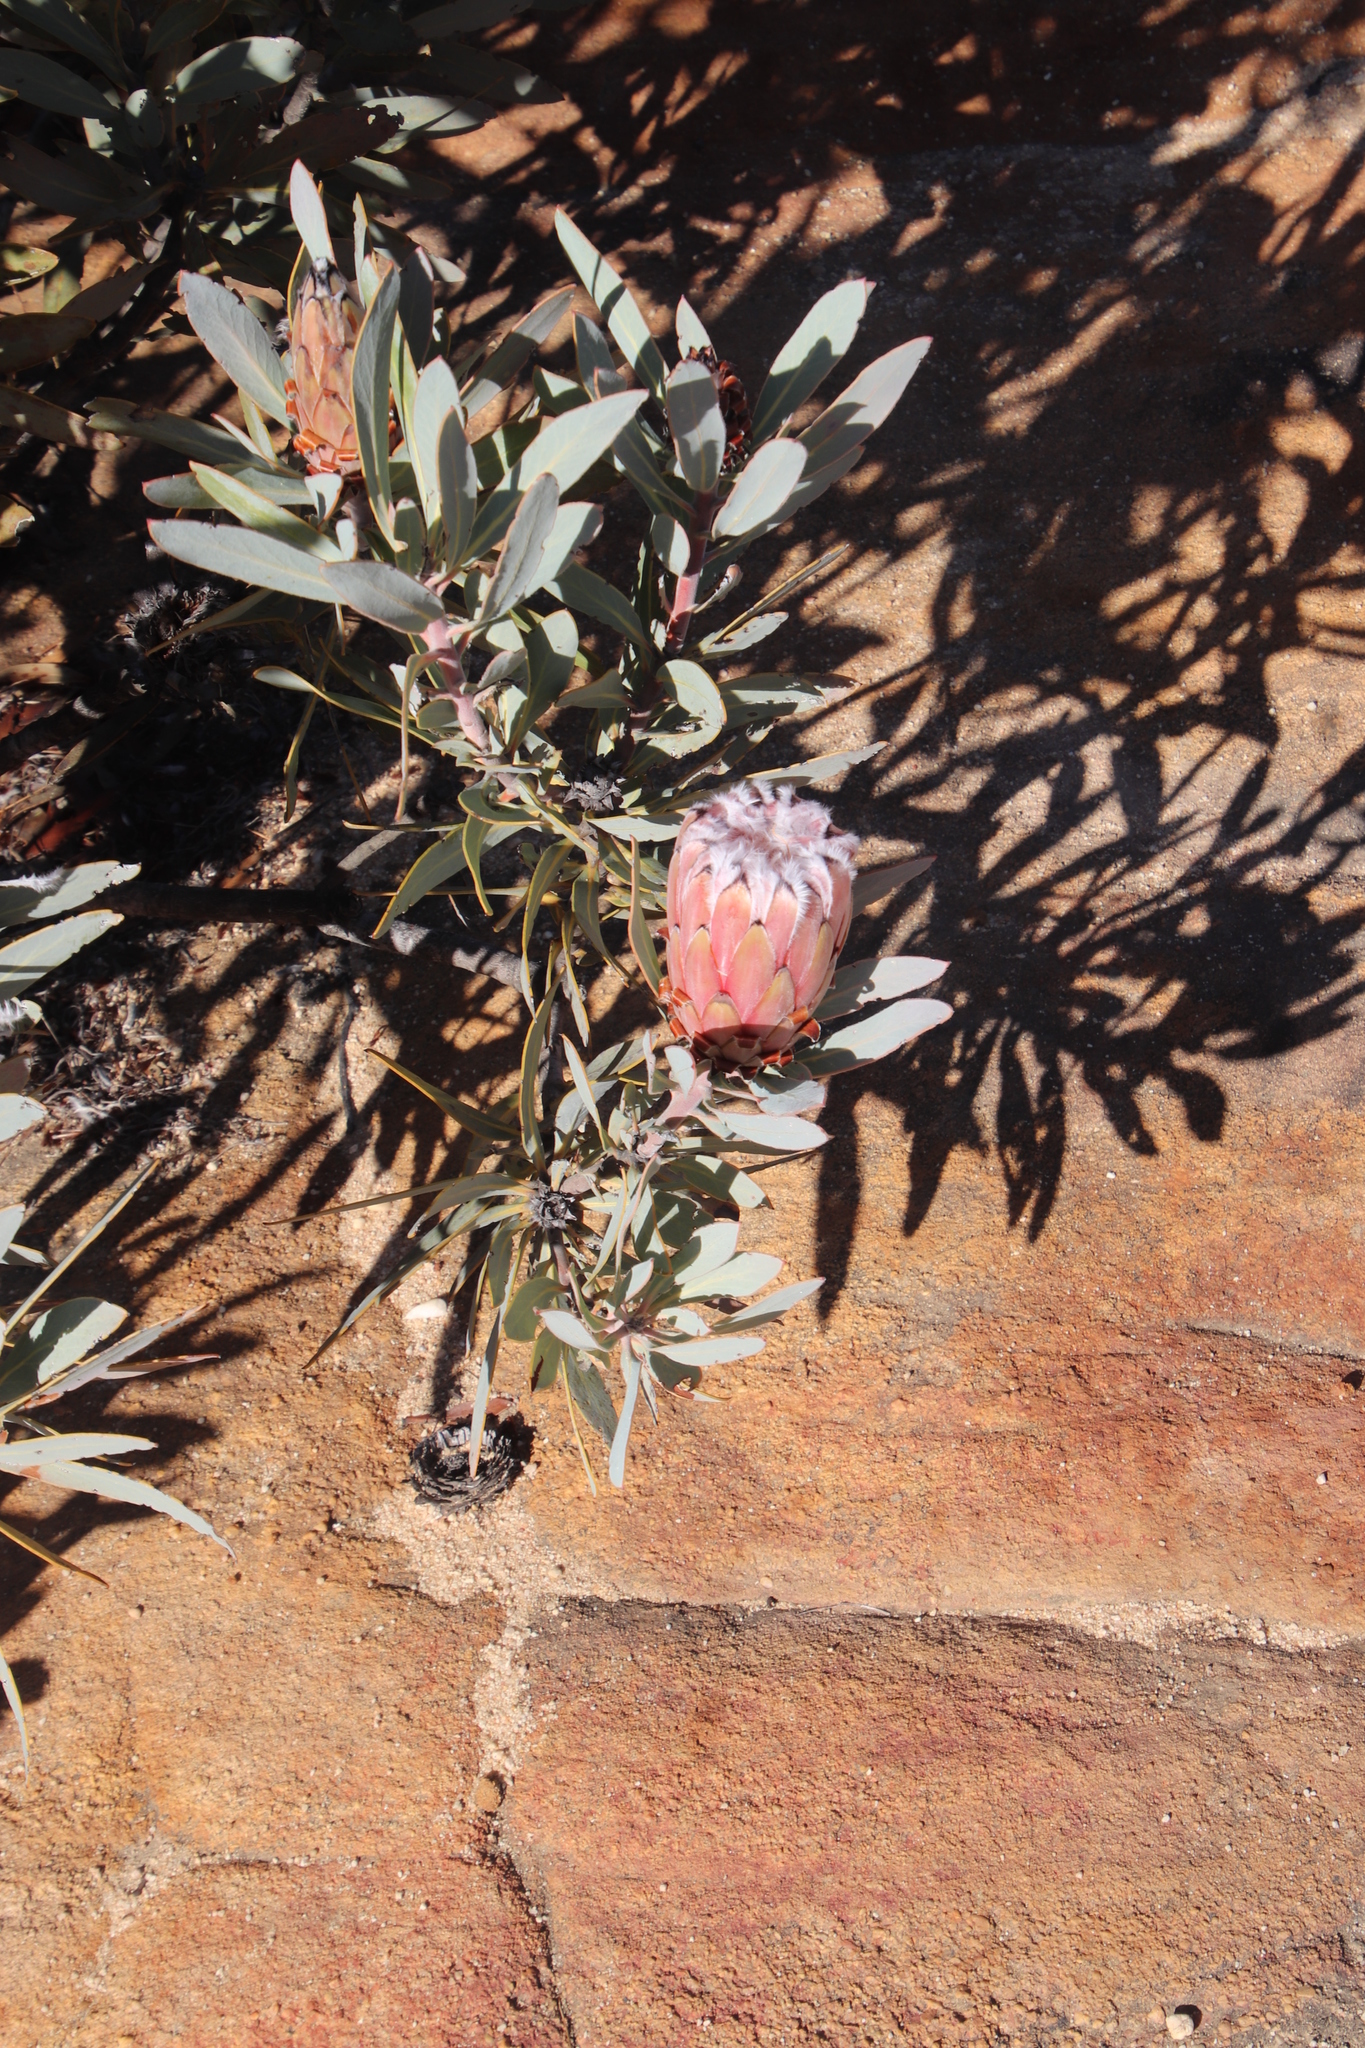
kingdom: Plantae
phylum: Tracheophyta
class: Magnoliopsida
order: Proteales
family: Proteaceae
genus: Protea
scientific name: Protea laurifolia
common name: Grey-leaf sugarbsh
